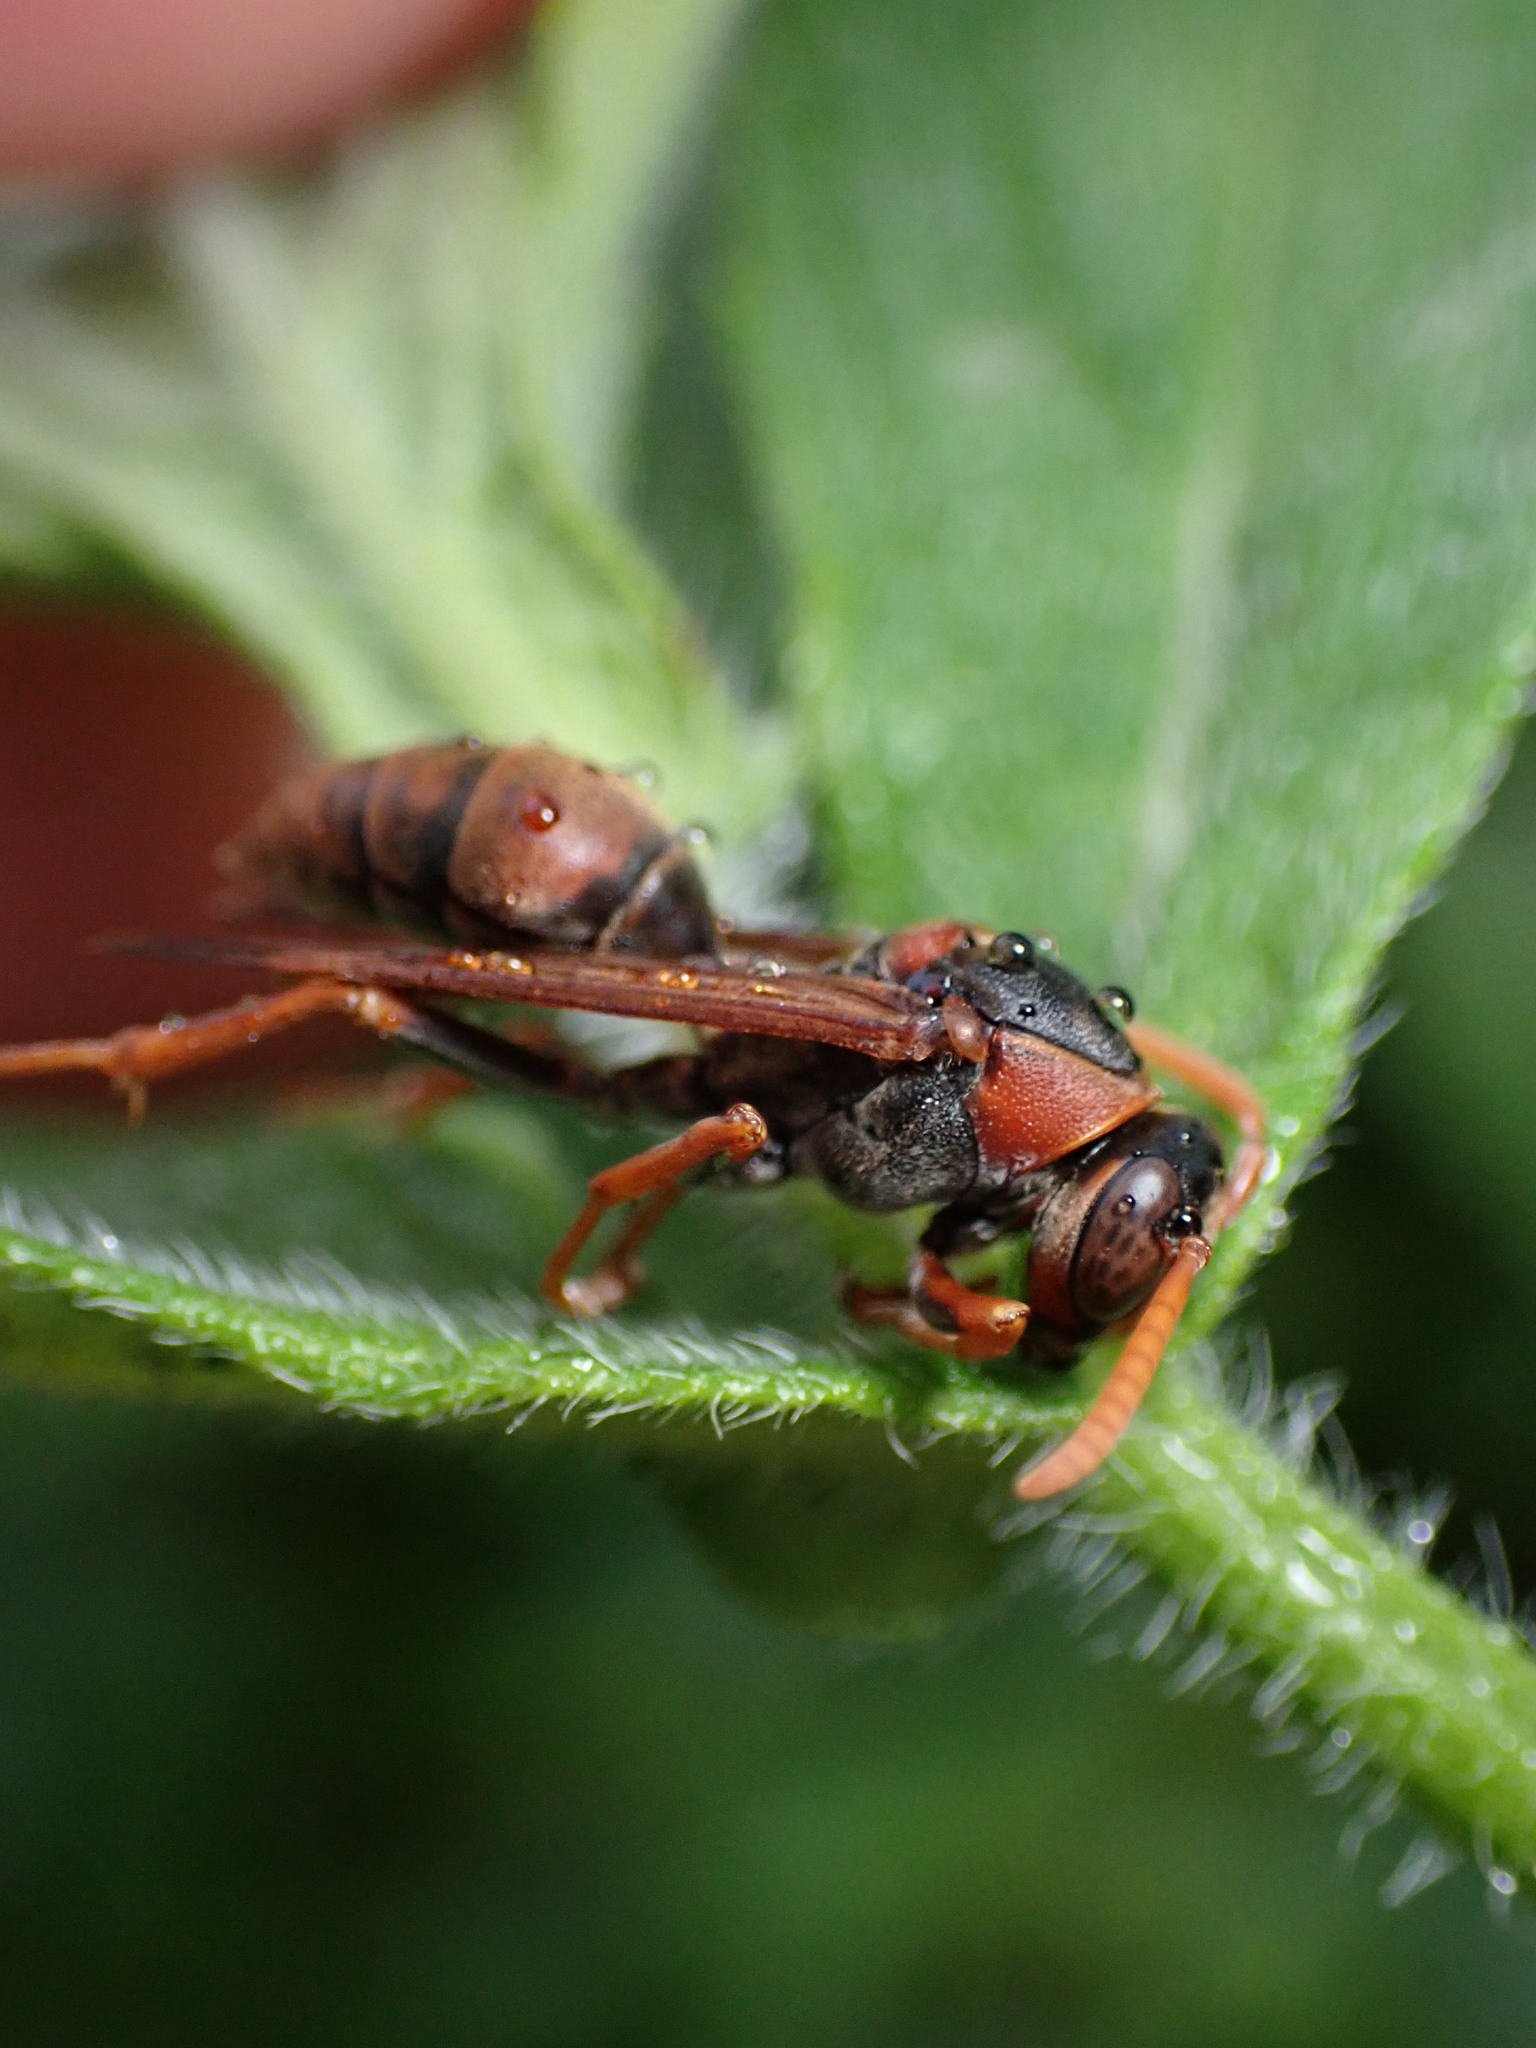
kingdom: Animalia
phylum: Arthropoda
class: Insecta
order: Hymenoptera
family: Eumenidae
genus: Polistes
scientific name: Polistes humilis
